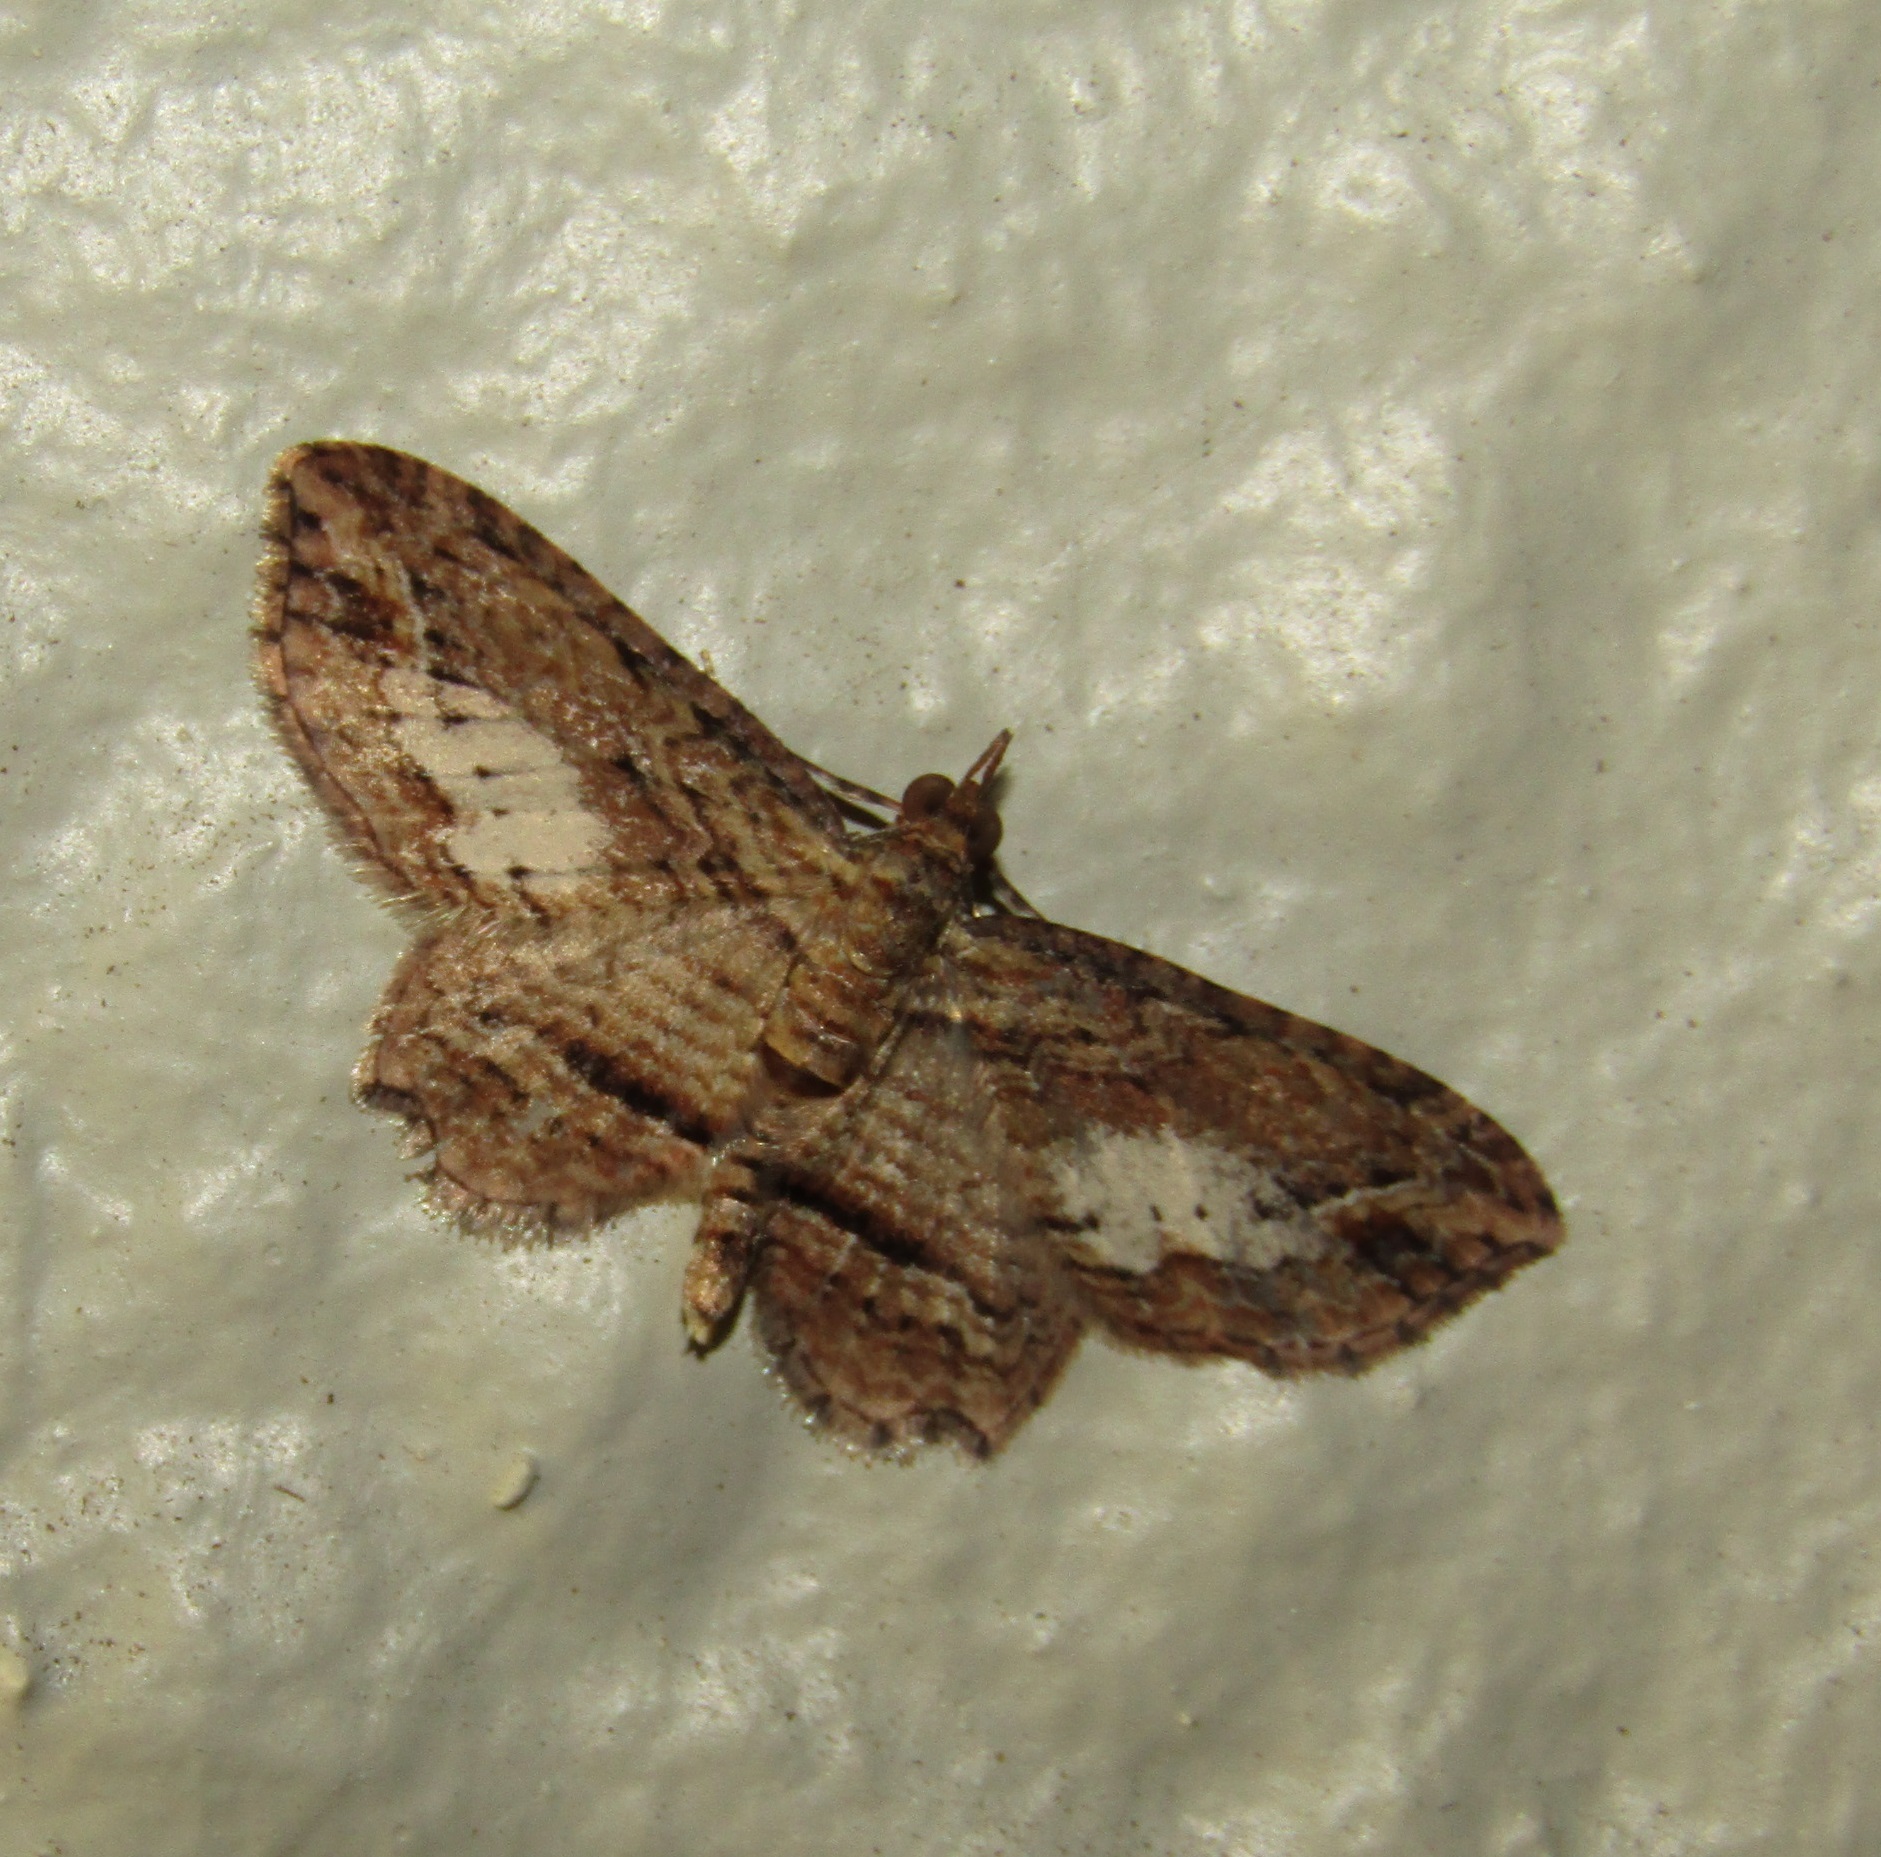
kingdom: Animalia
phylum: Arthropoda
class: Insecta
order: Lepidoptera
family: Geometridae
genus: Chloroclystis
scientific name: Chloroclystis filata
